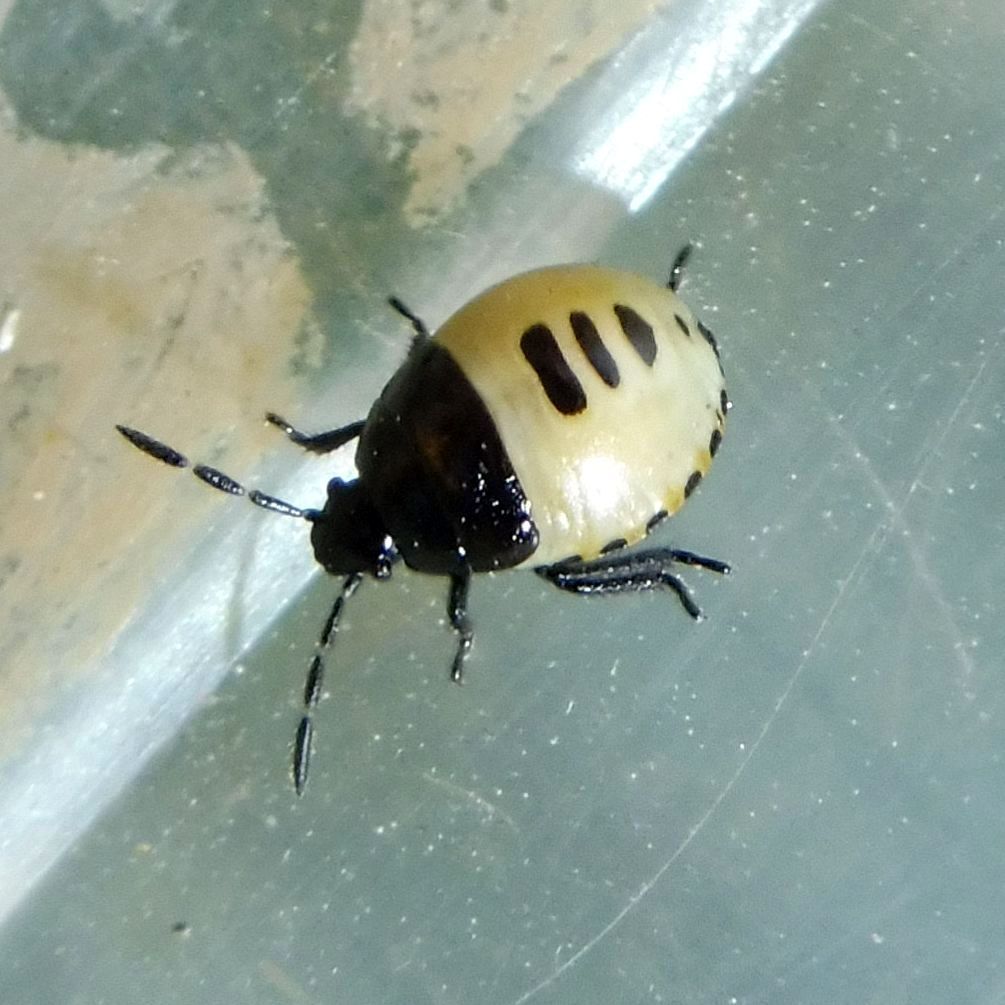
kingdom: Animalia
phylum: Arthropoda
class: Insecta
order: Hemiptera
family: Cydnidae
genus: Tritomegas
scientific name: Tritomegas bicolor
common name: Pied shieldbug
